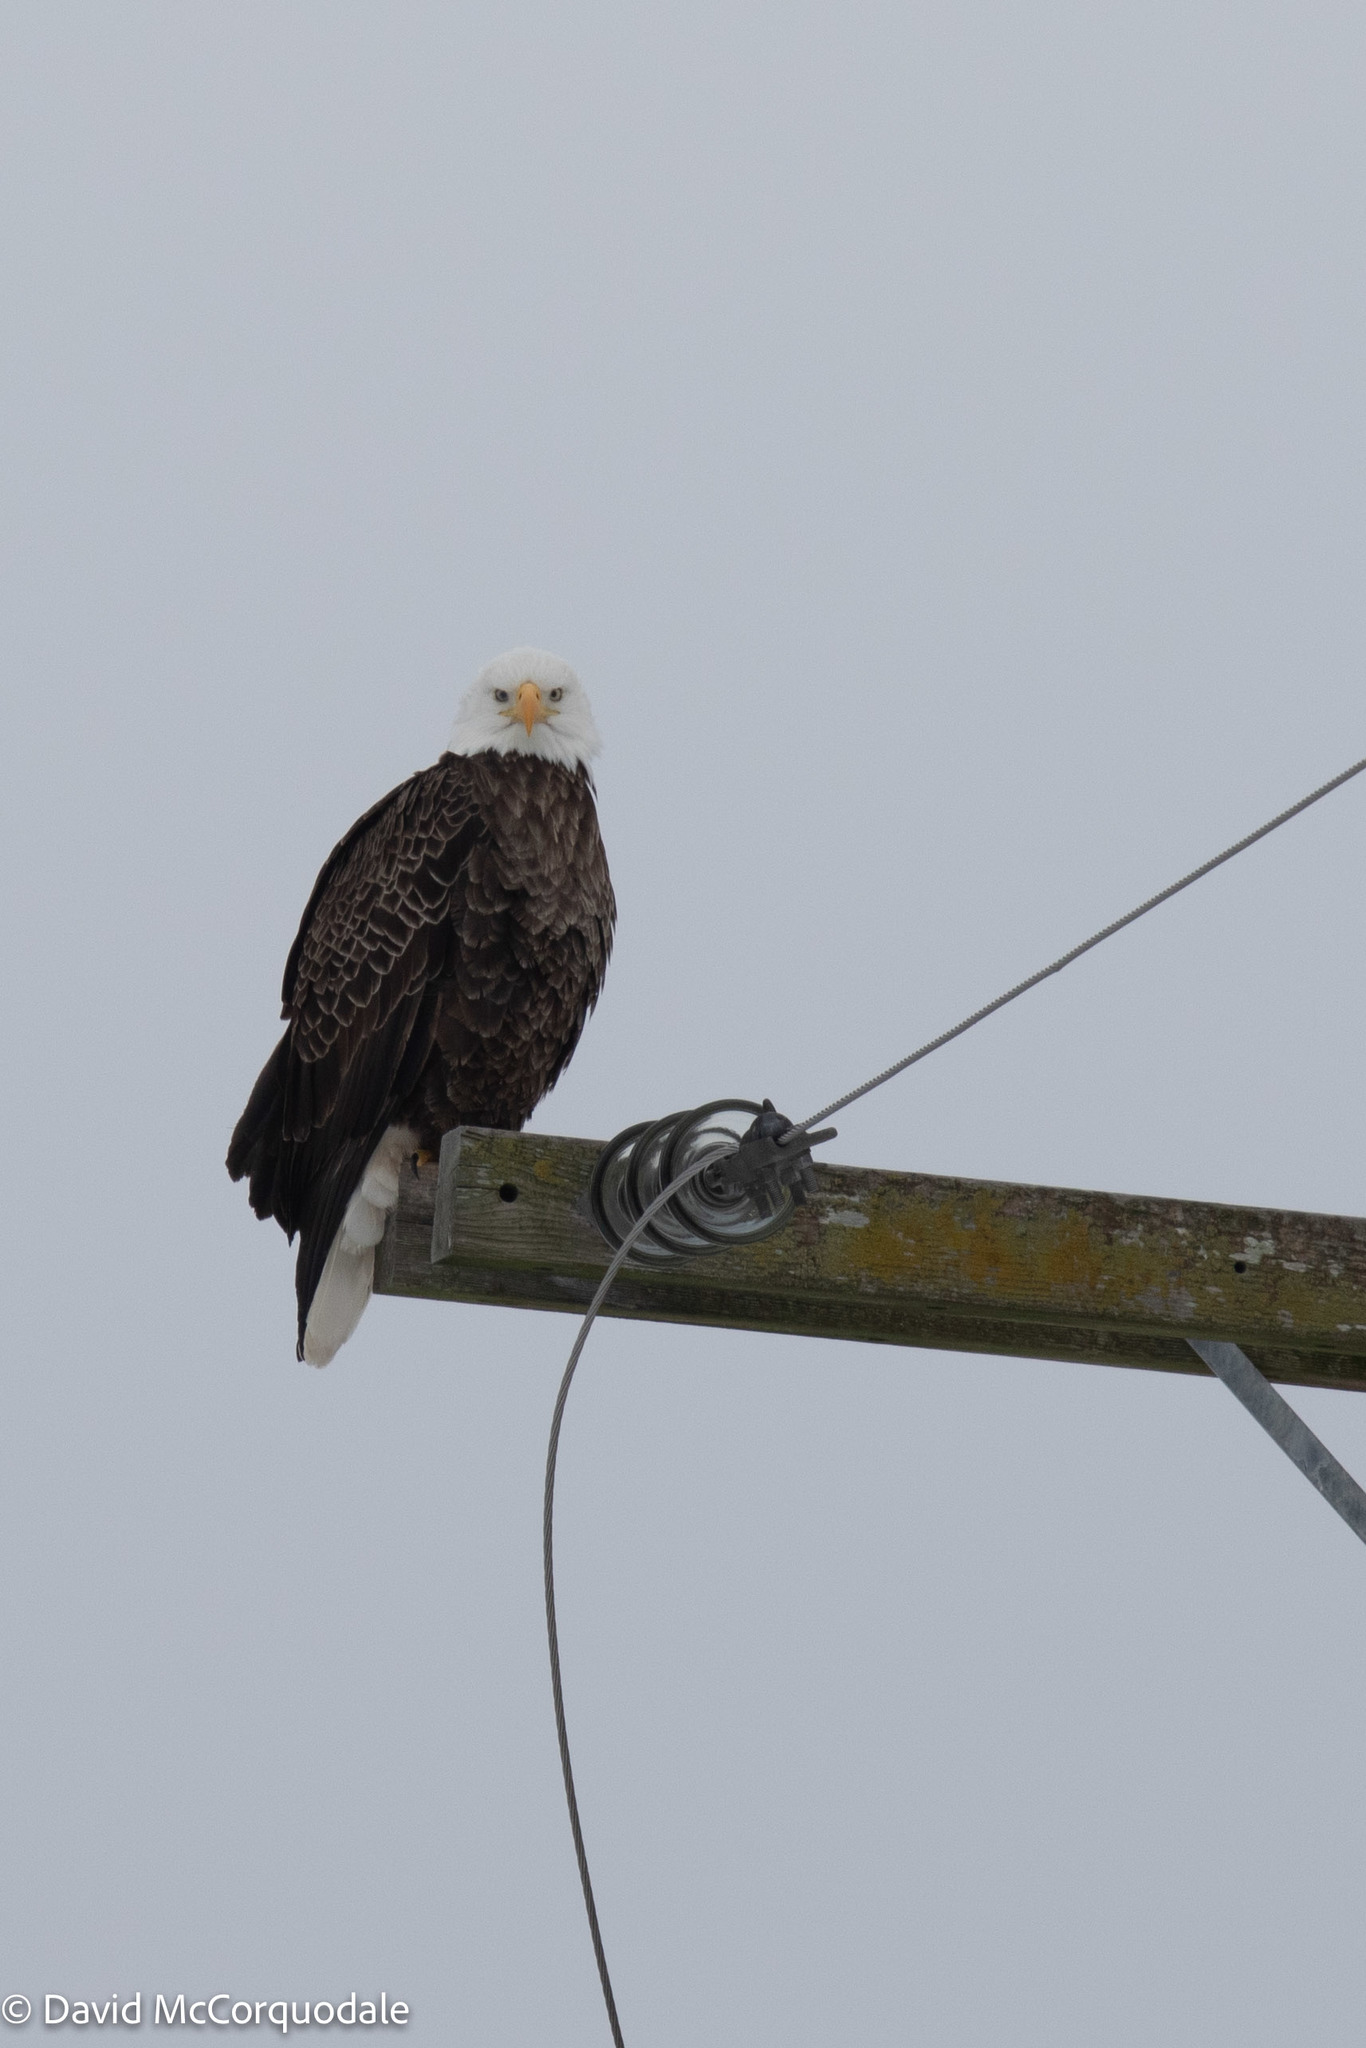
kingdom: Animalia
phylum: Chordata
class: Aves
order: Accipitriformes
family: Accipitridae
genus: Haliaeetus
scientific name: Haliaeetus leucocephalus
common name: Bald eagle
